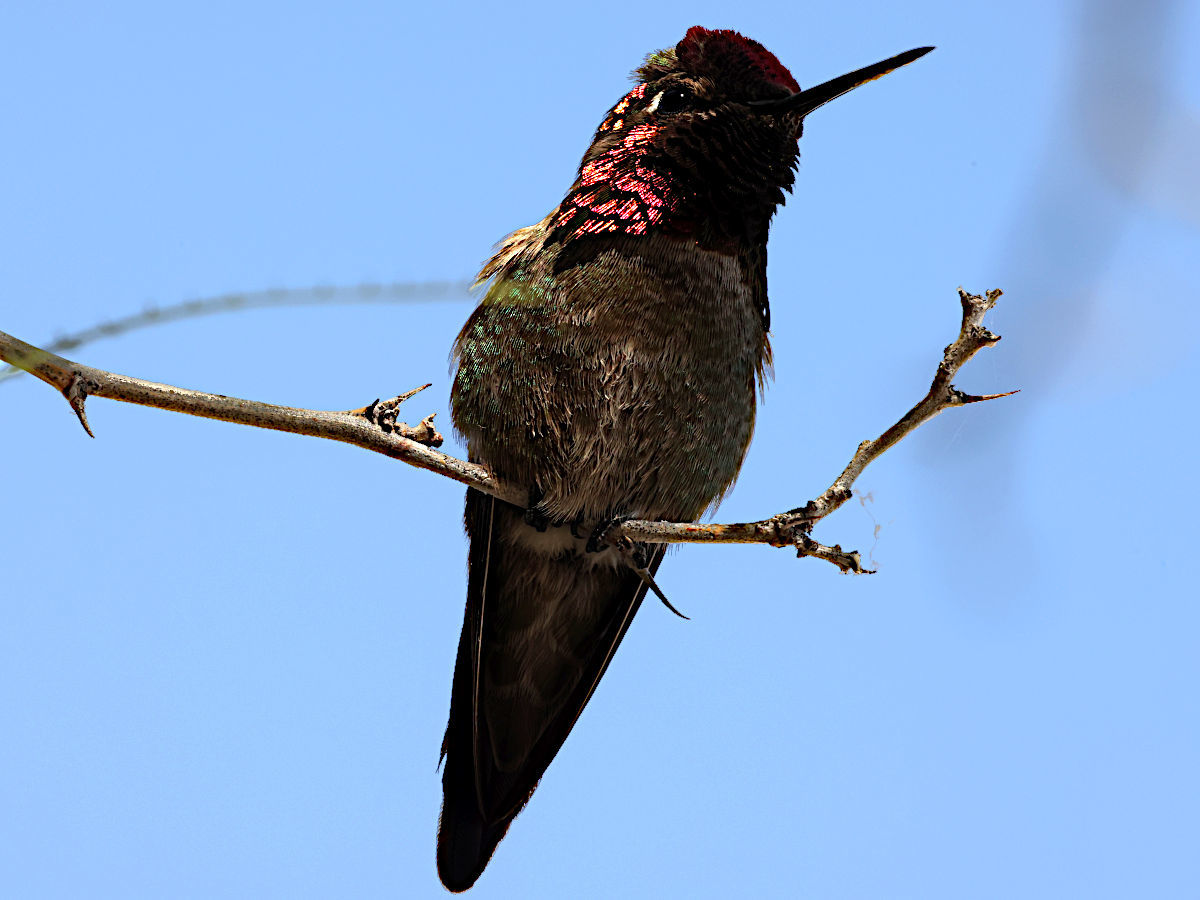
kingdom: Animalia
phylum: Chordata
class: Aves
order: Apodiformes
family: Trochilidae
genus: Calypte
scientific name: Calypte anna
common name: Anna's hummingbird
